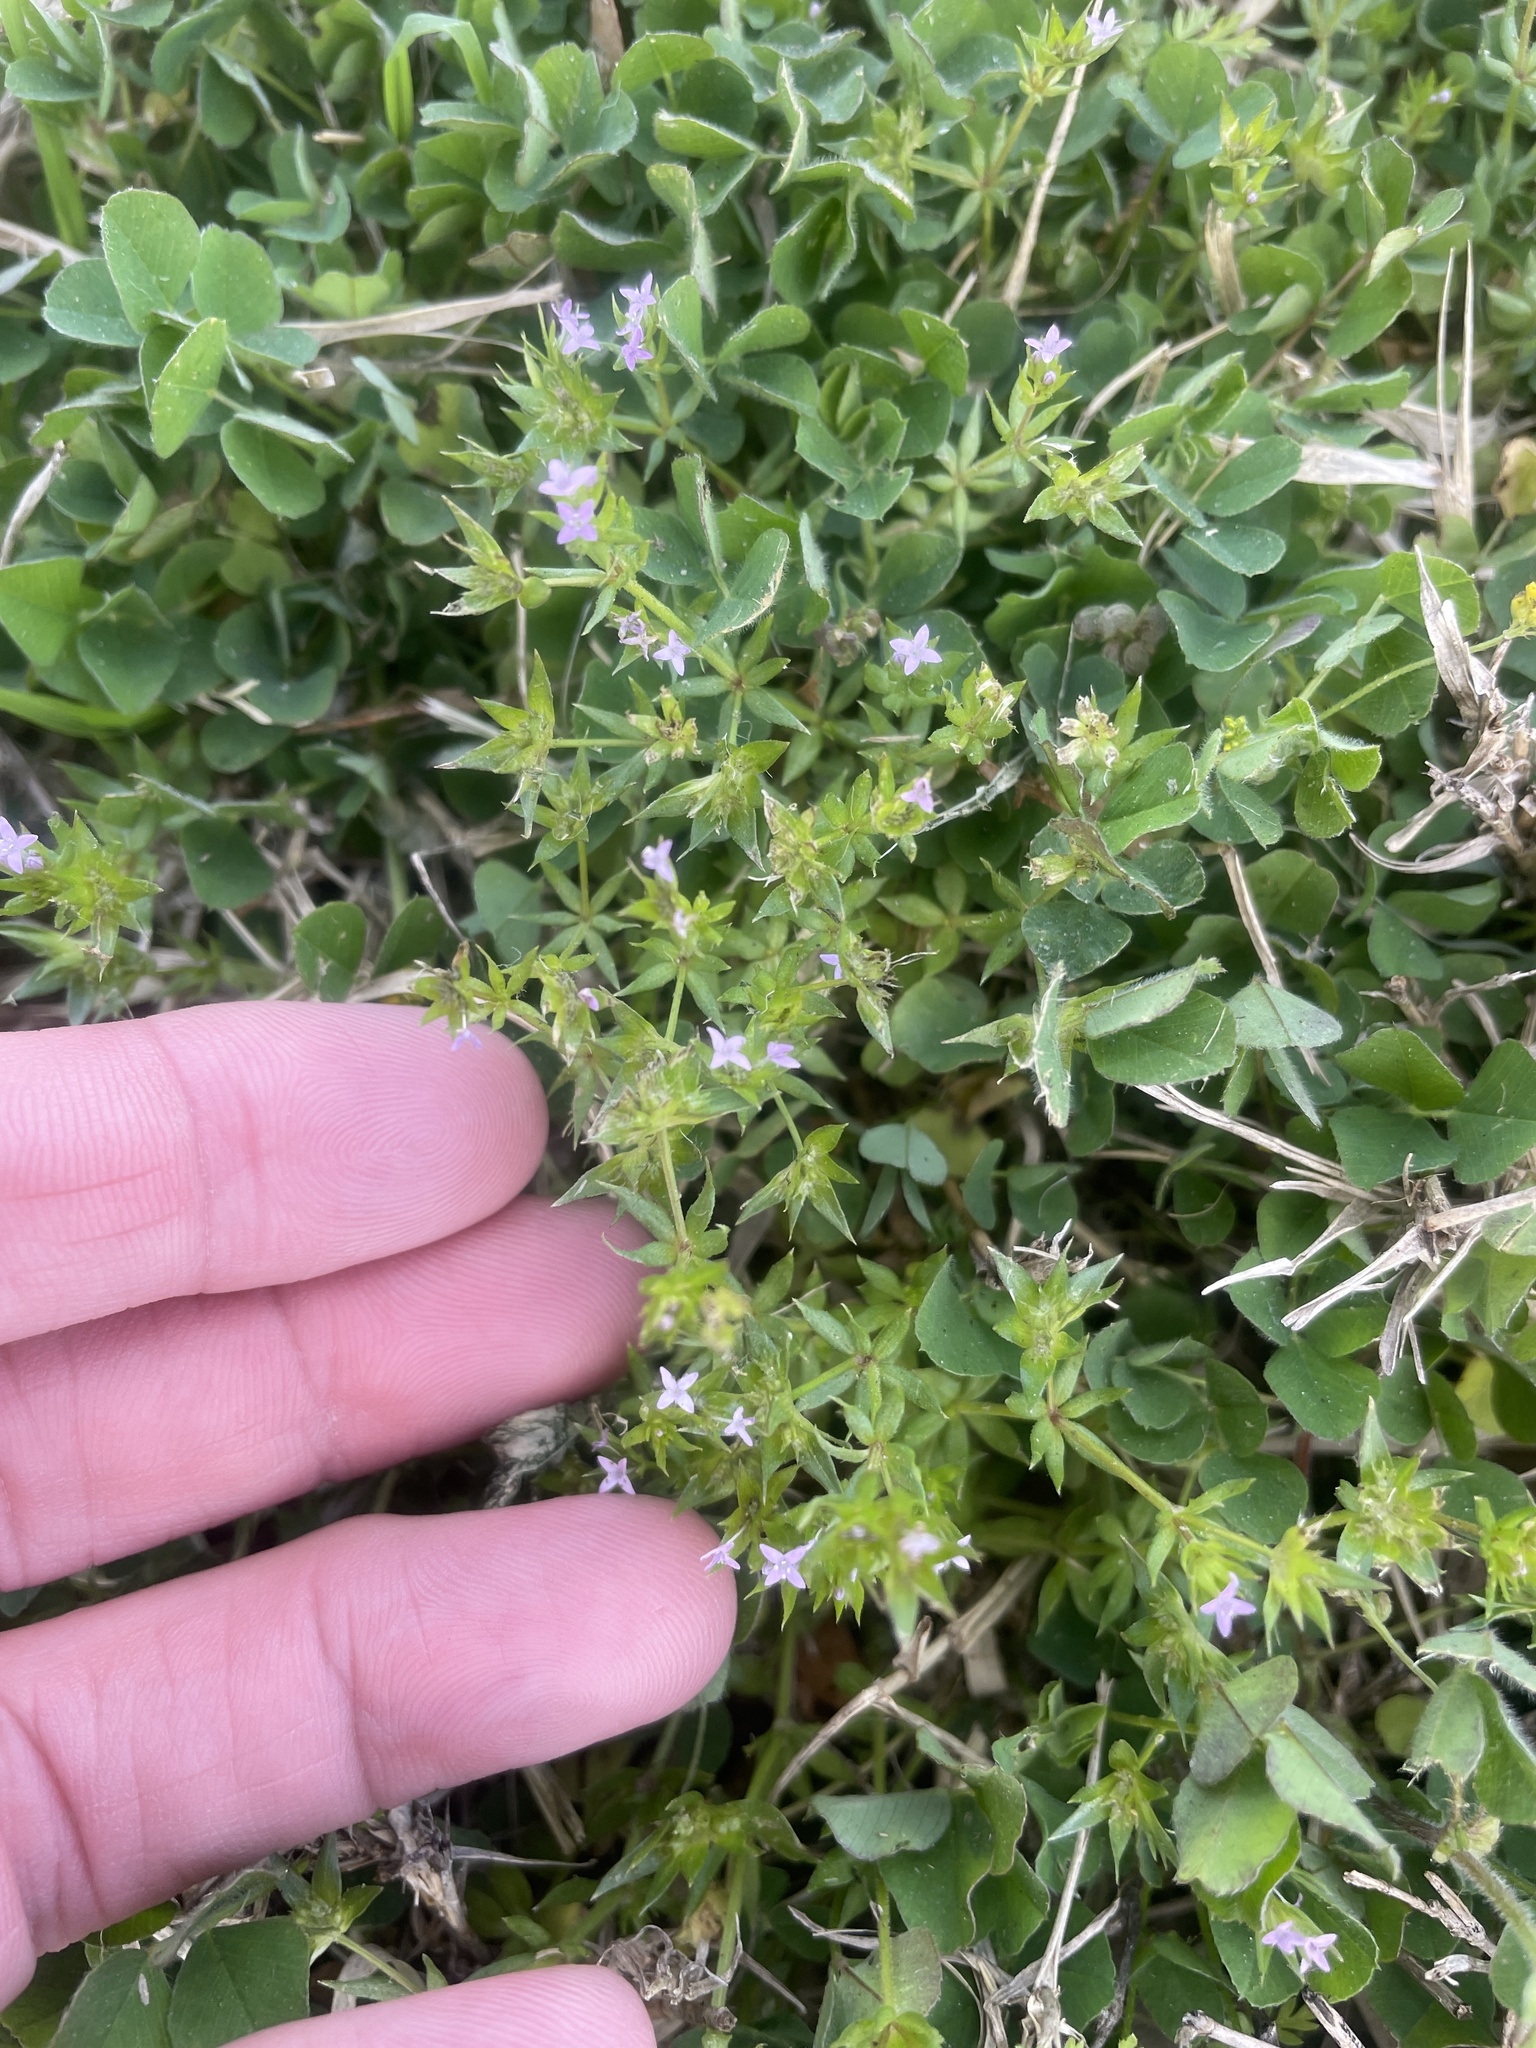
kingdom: Plantae
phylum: Tracheophyta
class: Magnoliopsida
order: Gentianales
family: Rubiaceae
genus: Sherardia
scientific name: Sherardia arvensis
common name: Field madder
